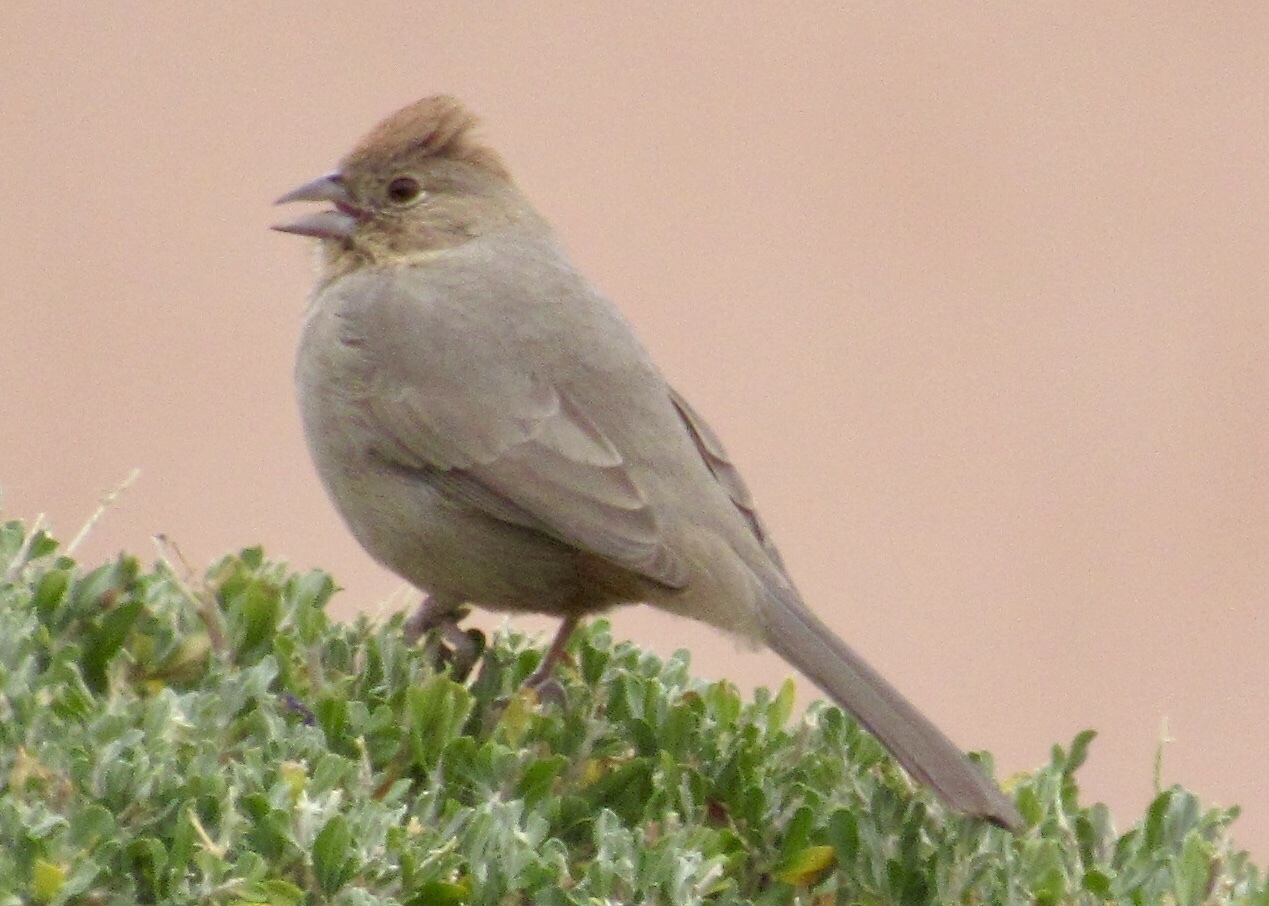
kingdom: Animalia
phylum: Chordata
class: Aves
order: Passeriformes
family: Passerellidae
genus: Melozone
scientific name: Melozone fusca
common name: Canyon towhee
